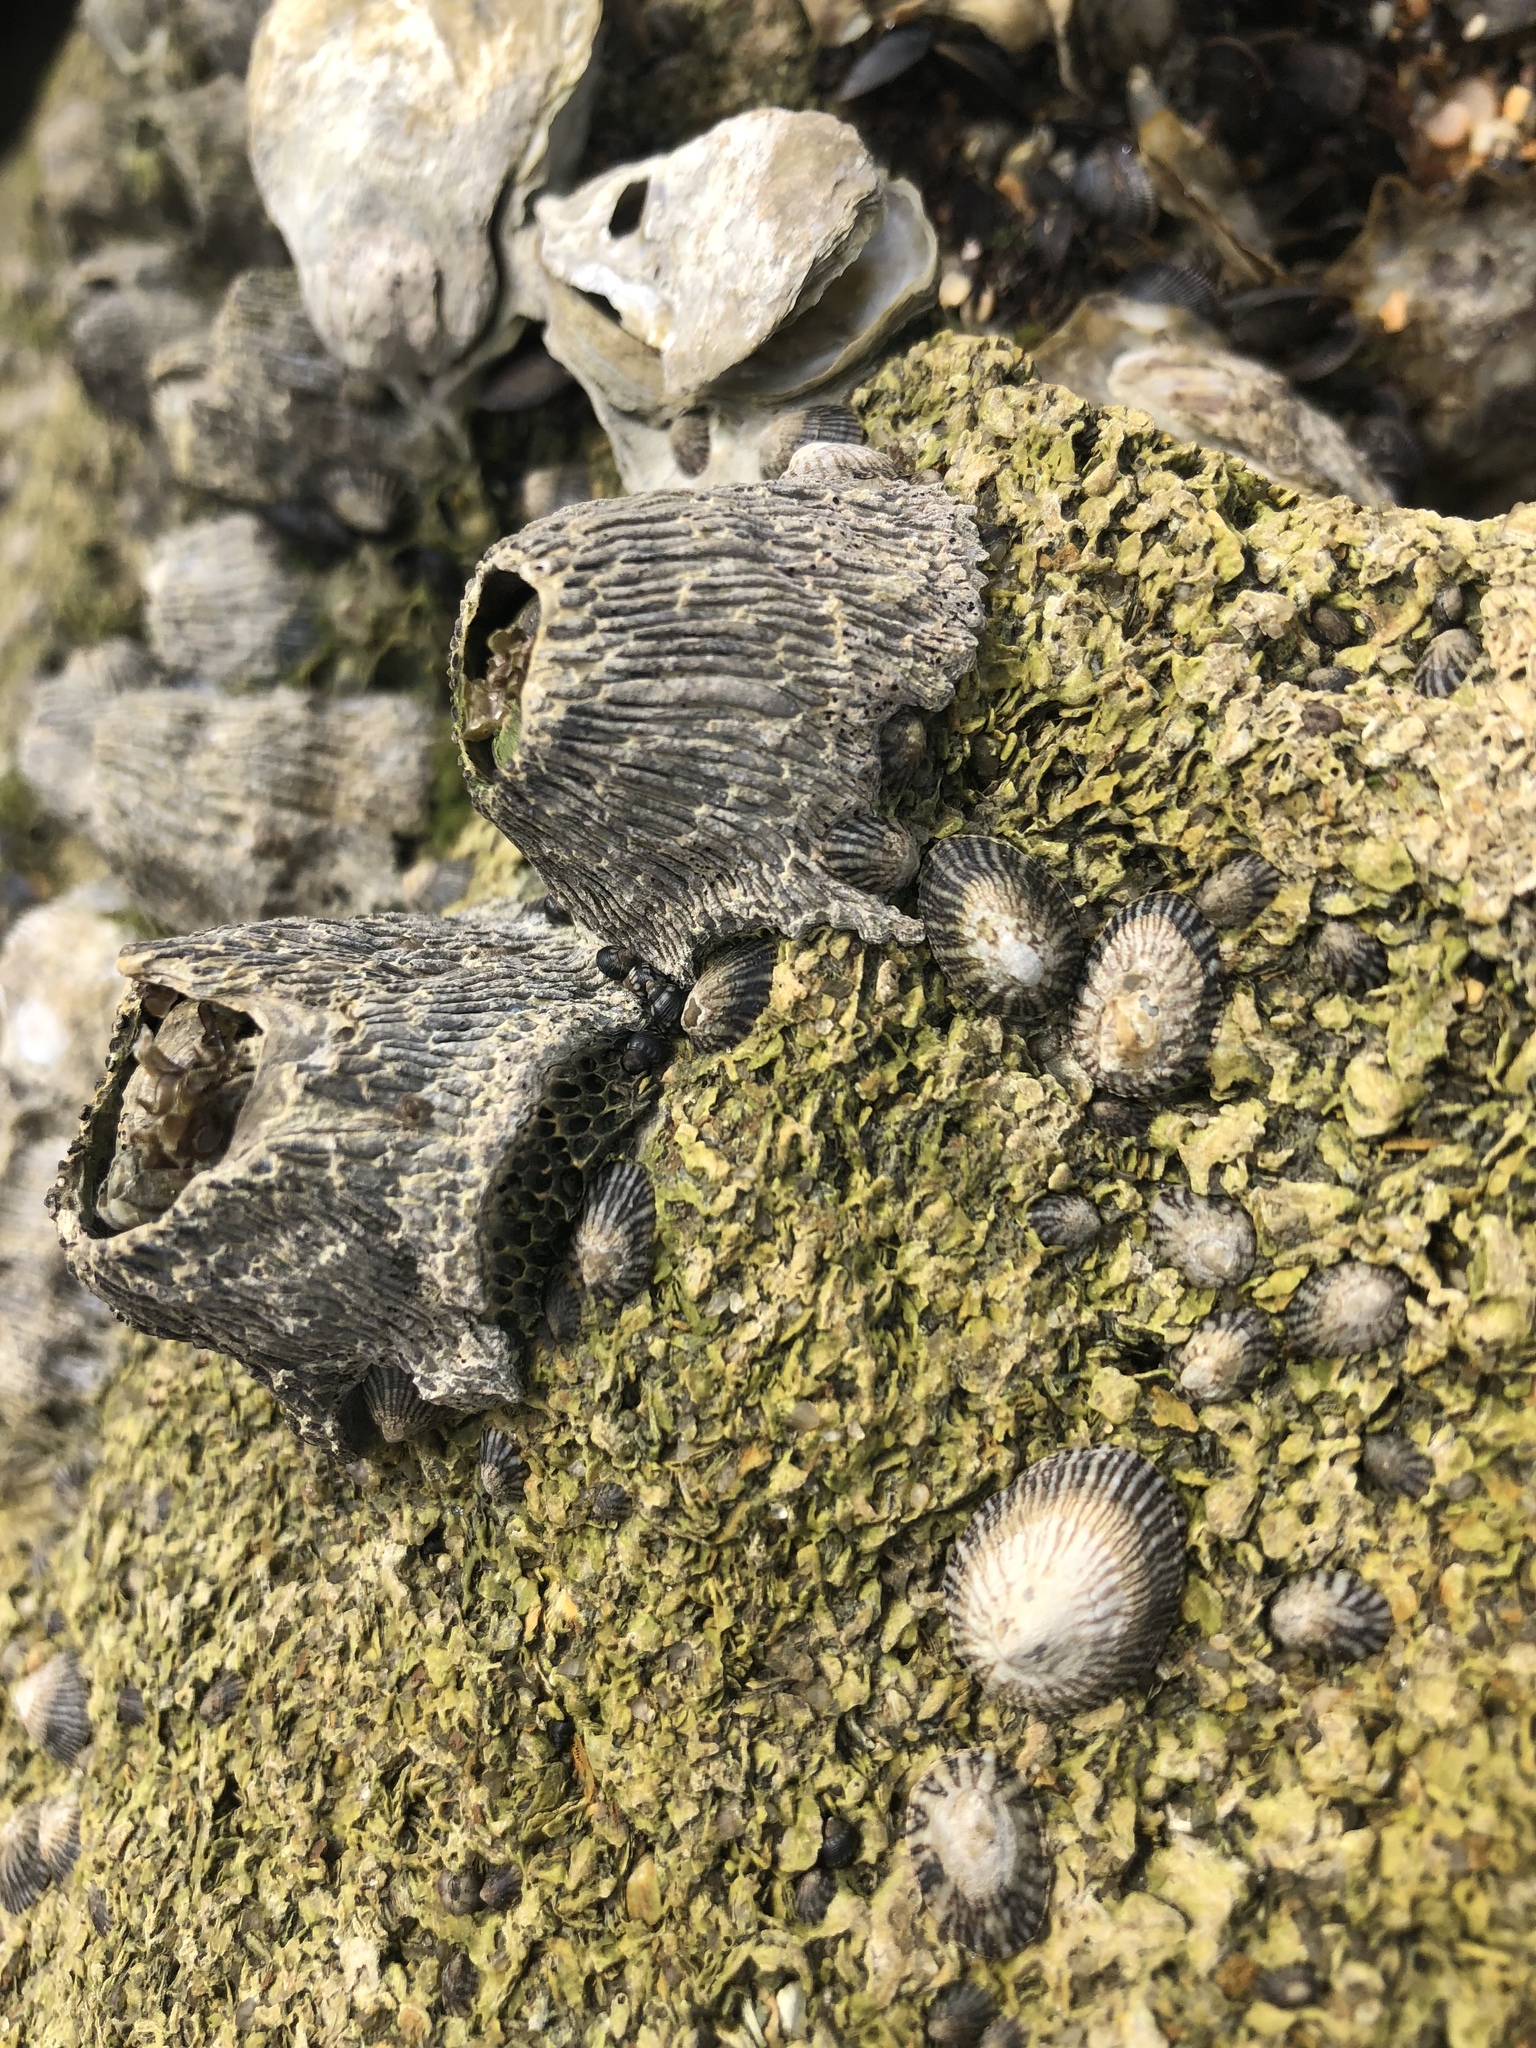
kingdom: Animalia
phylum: Arthropoda
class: Maxillopoda
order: Sessilia
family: Tetraclitidae
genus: Tetraclita
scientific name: Tetraclita stalactifera
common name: Ribbed barnacle
